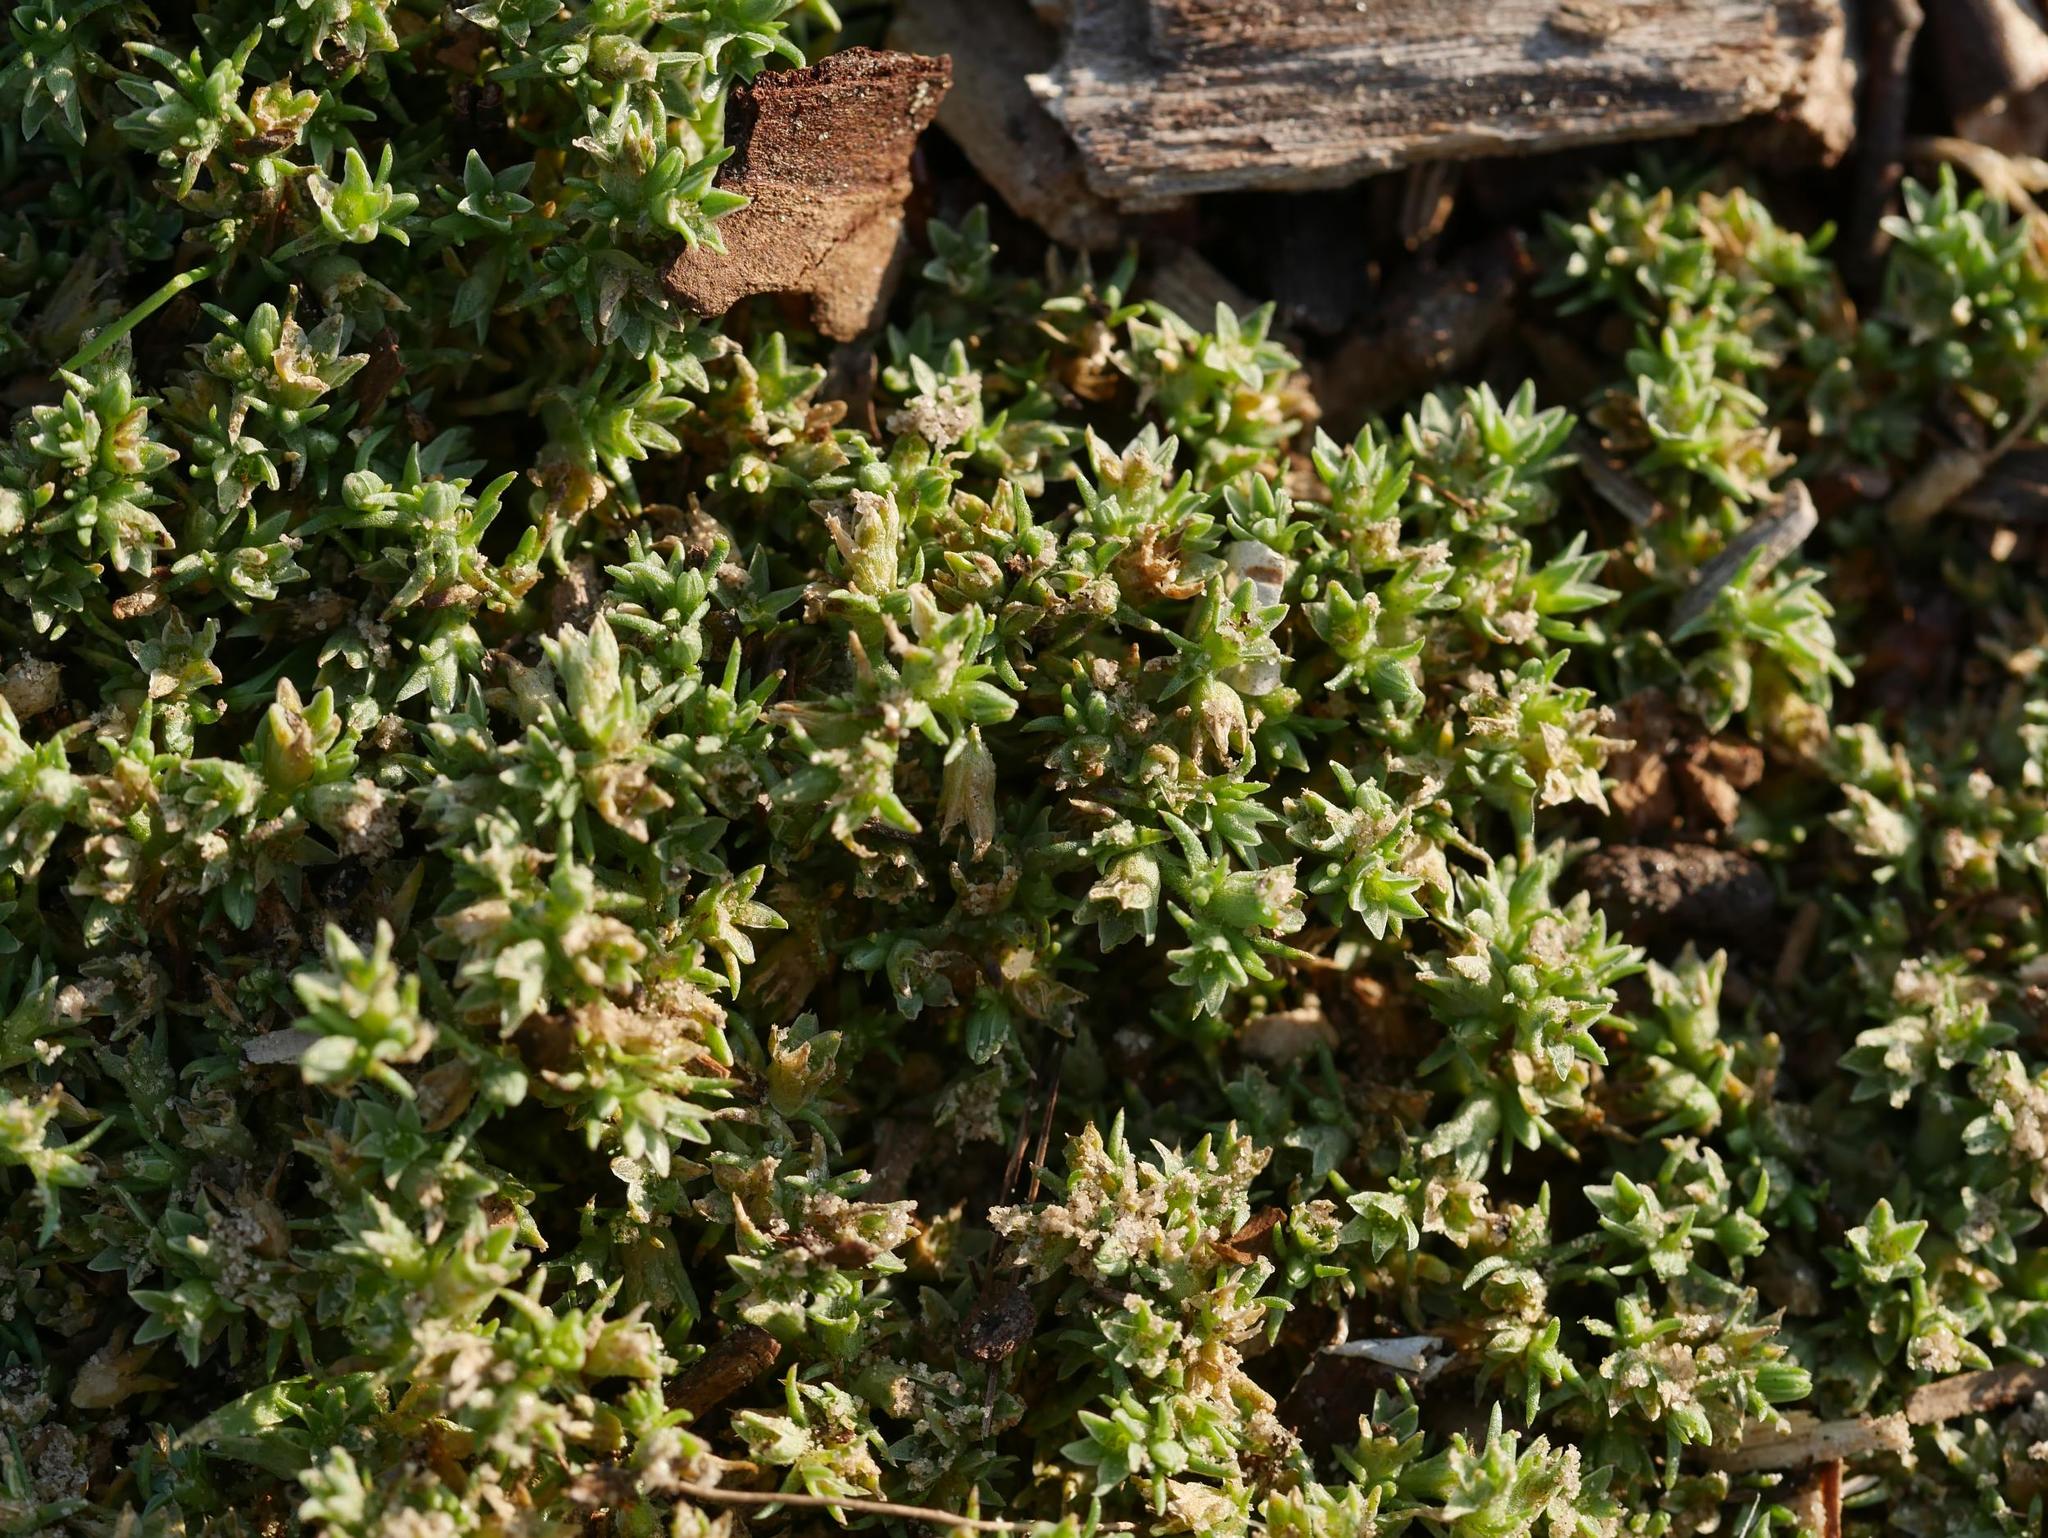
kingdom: Plantae
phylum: Tracheophyta
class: Magnoliopsida
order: Caryophyllales
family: Caryophyllaceae
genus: Scleranthus
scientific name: Scleranthus annuus
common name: Annual knawel
